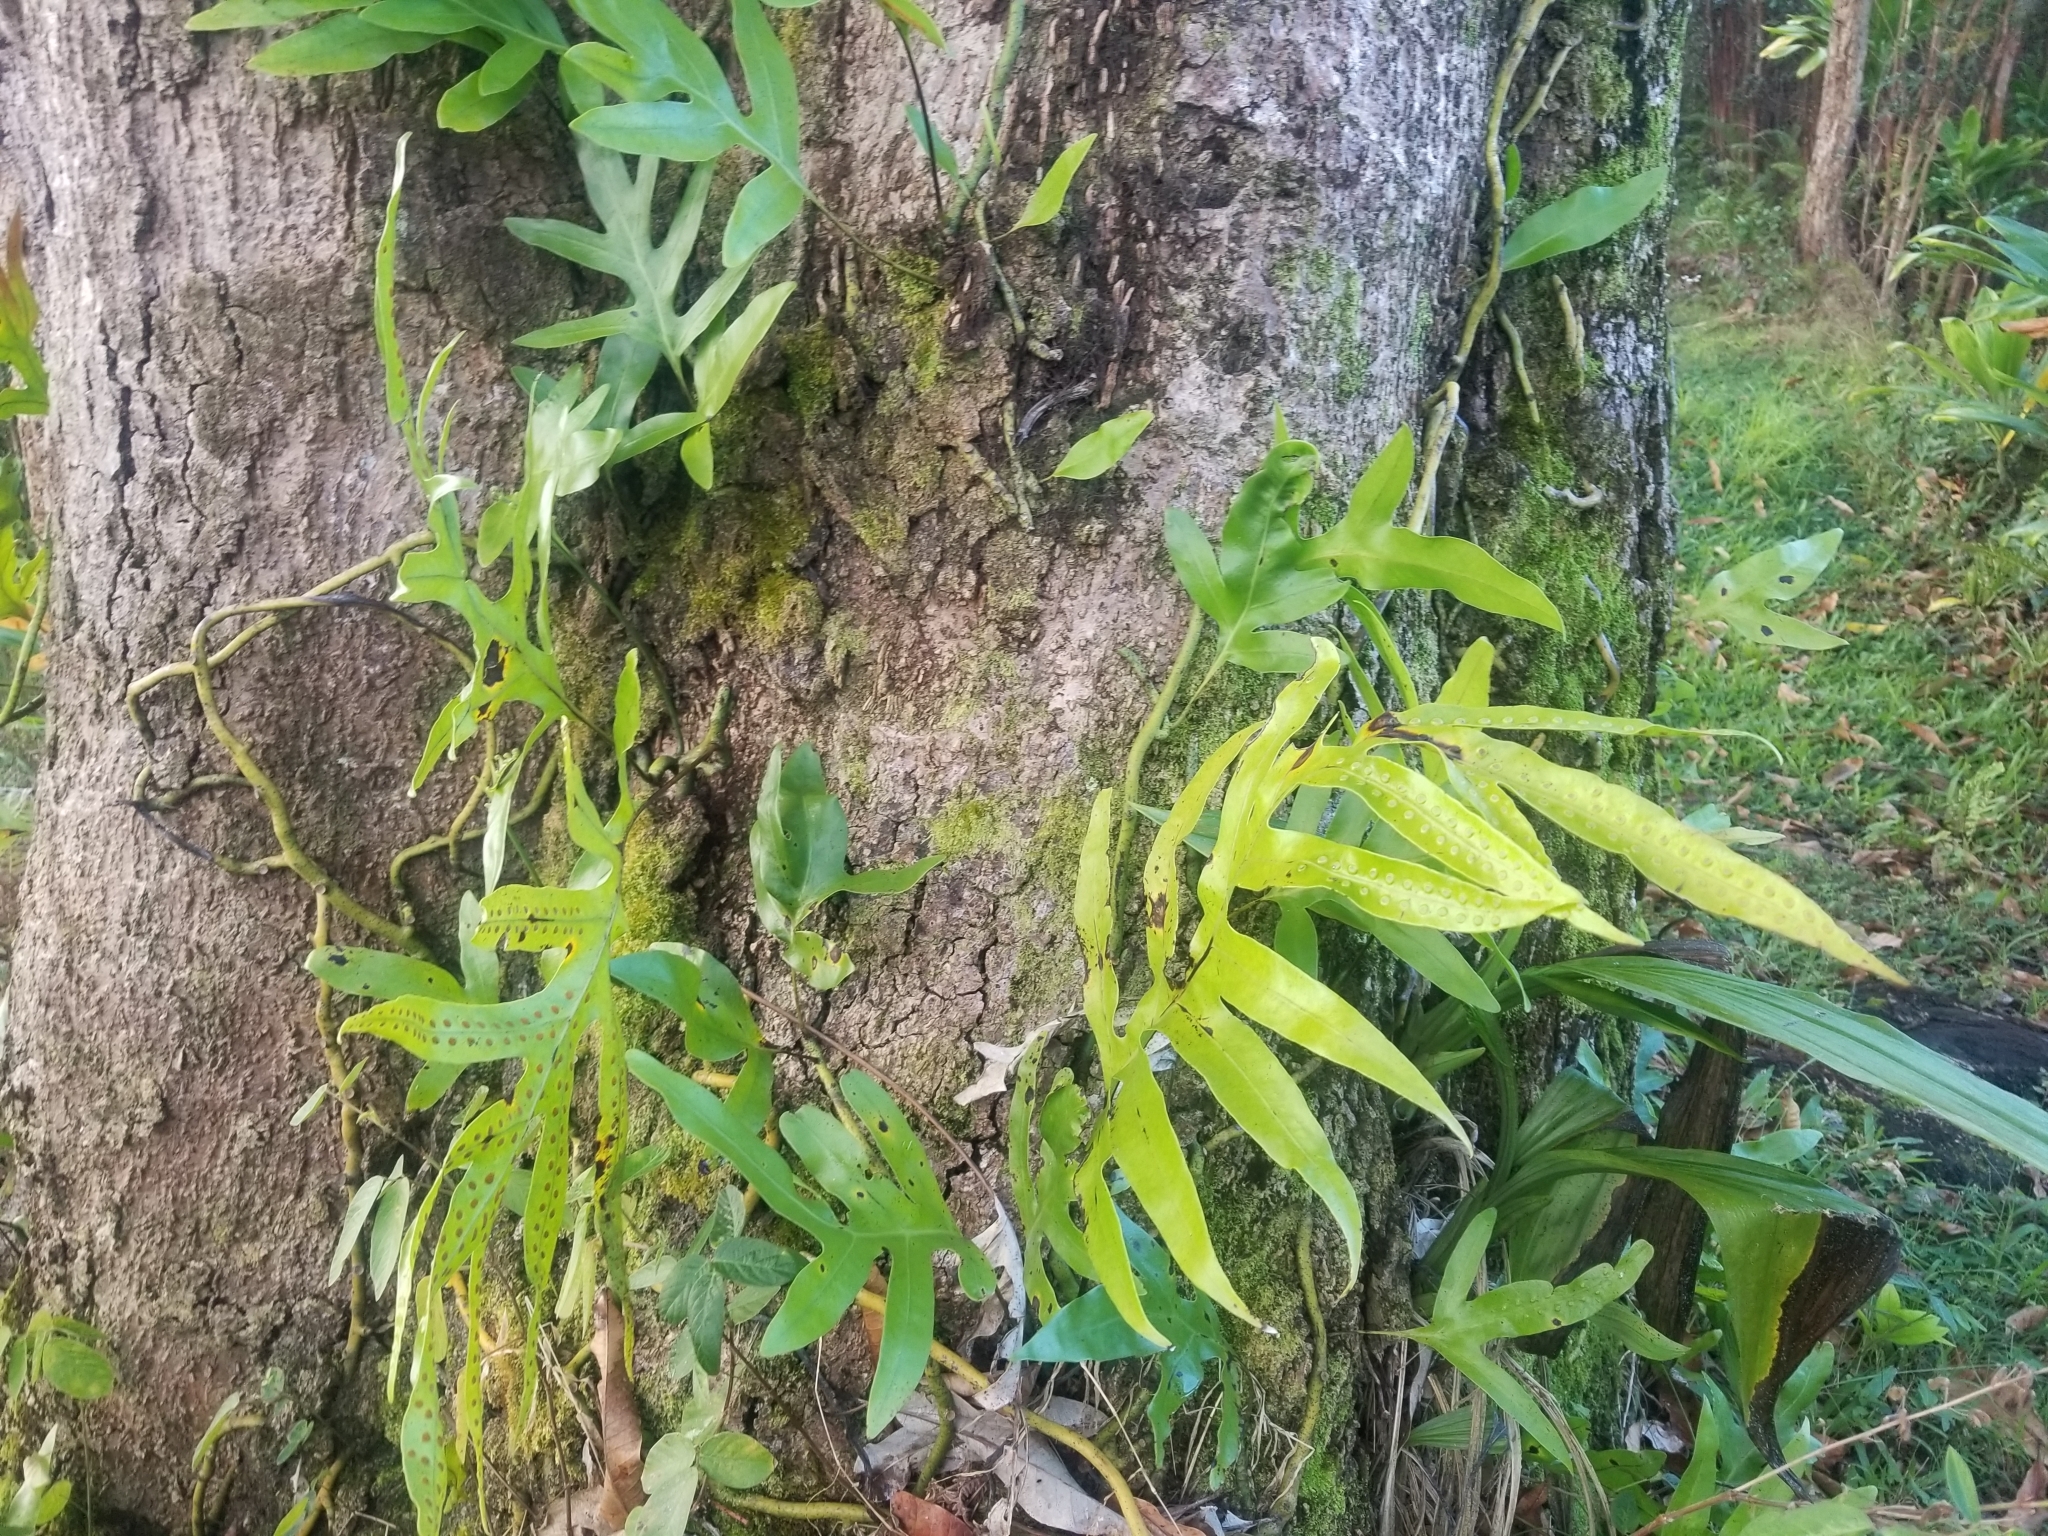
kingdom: Plantae
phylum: Tracheophyta
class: Polypodiopsida
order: Polypodiales
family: Polypodiaceae
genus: Microsorum
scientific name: Microsorum grossum
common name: Musk fern
